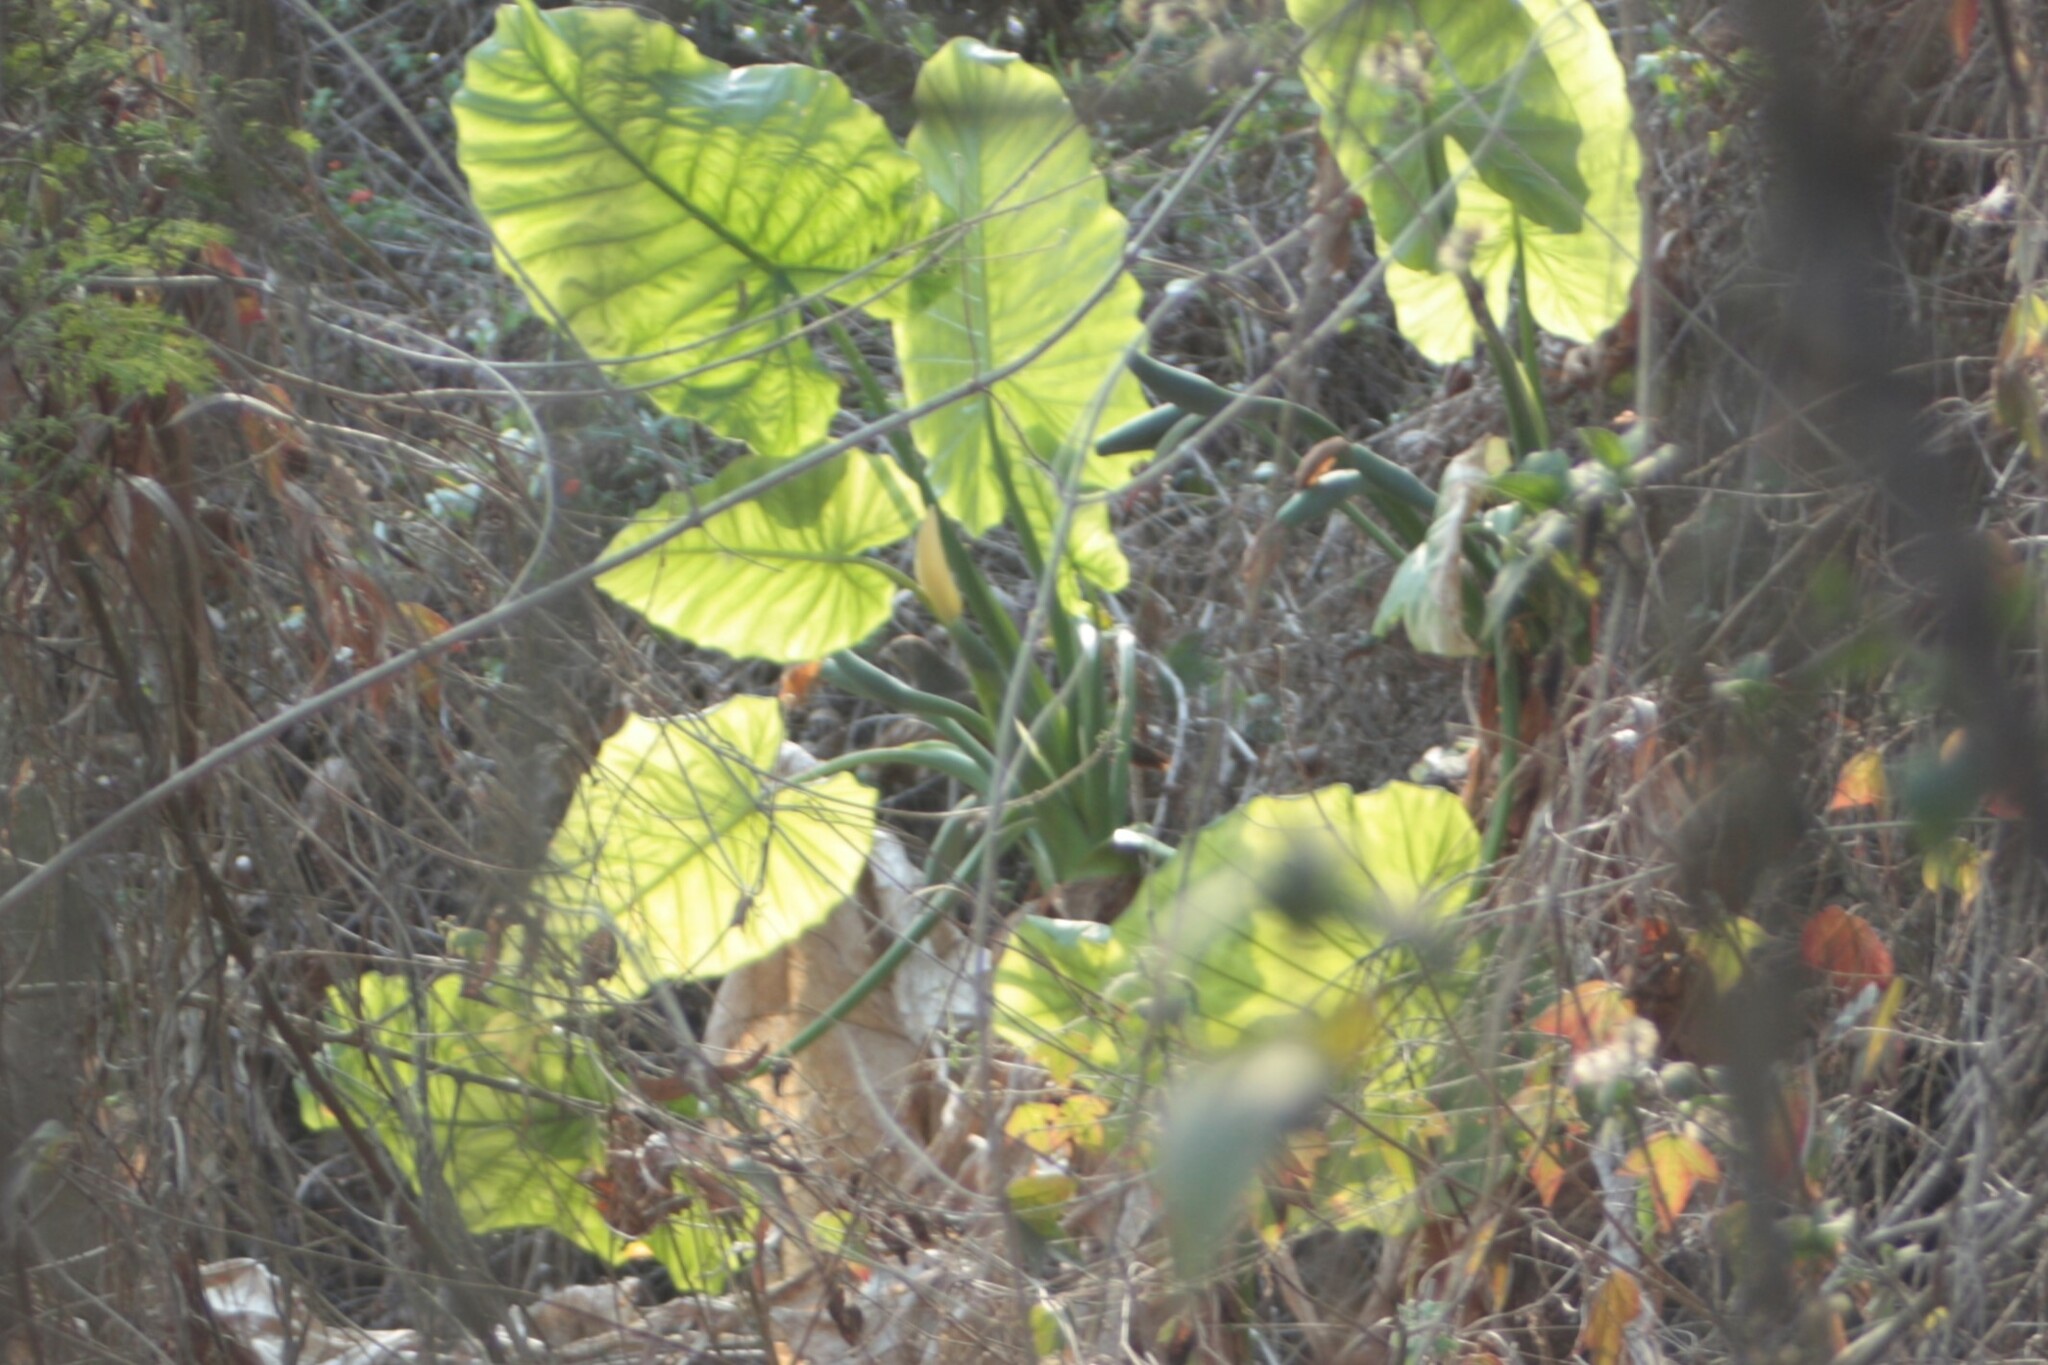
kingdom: Plantae
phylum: Tracheophyta
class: Liliopsida
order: Alismatales
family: Araceae
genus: Alocasia
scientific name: Alocasia odora
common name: Asian taro
